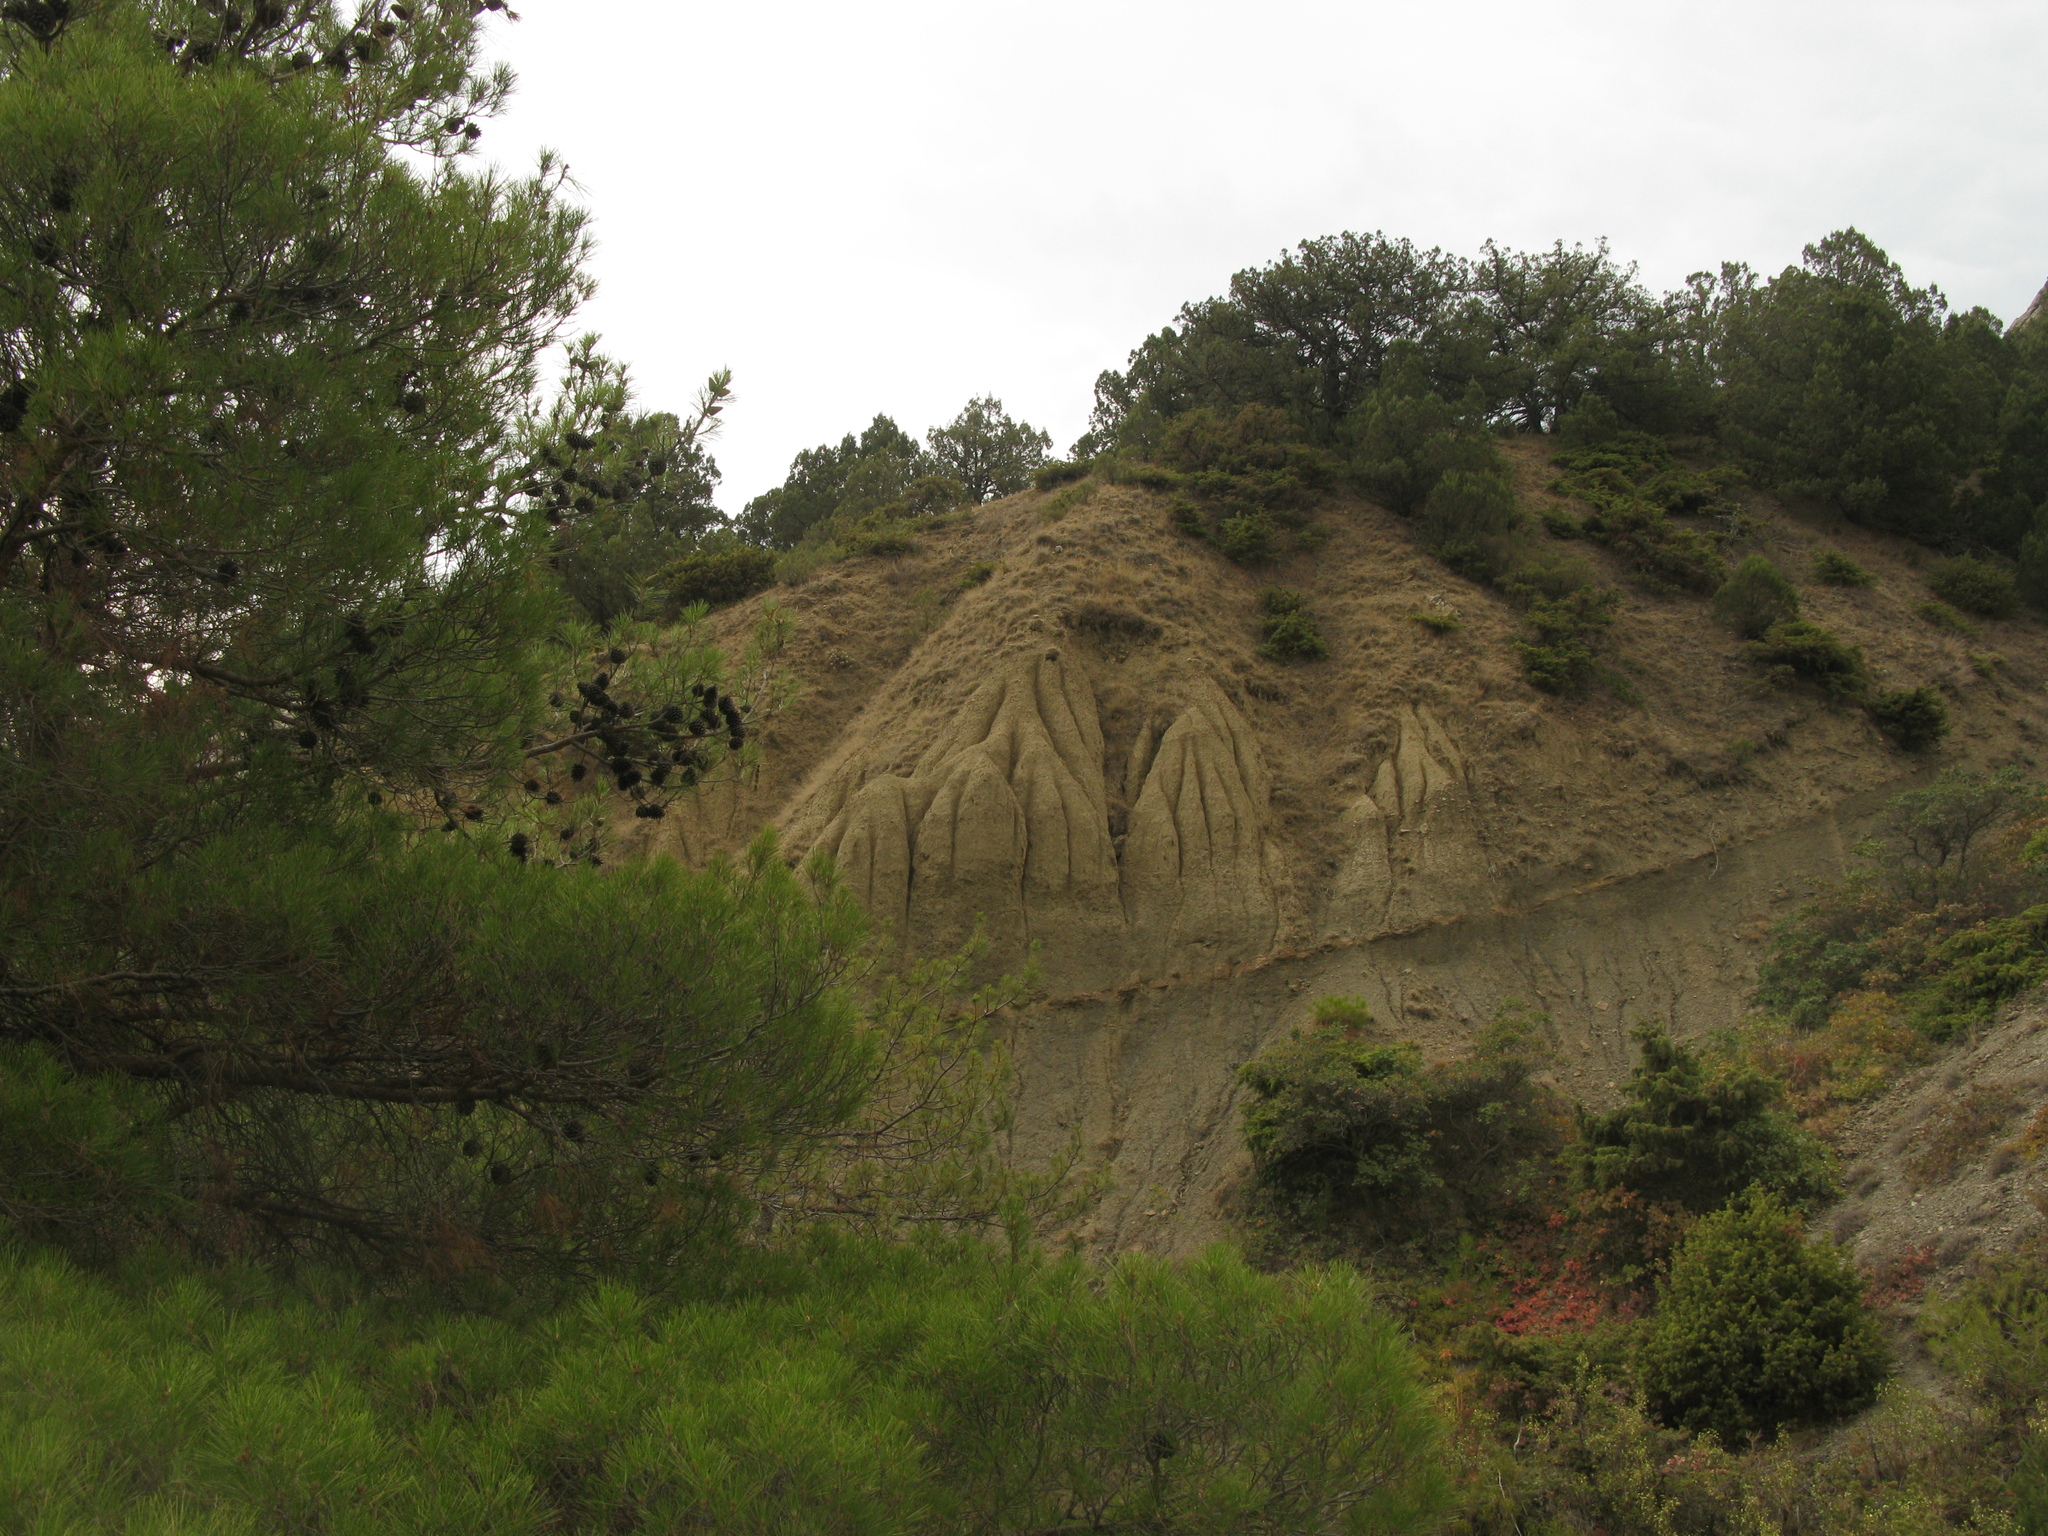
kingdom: Plantae
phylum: Tracheophyta
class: Pinopsida
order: Pinales
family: Pinaceae
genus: Pinus
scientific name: Pinus brutia
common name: Turkish pine
